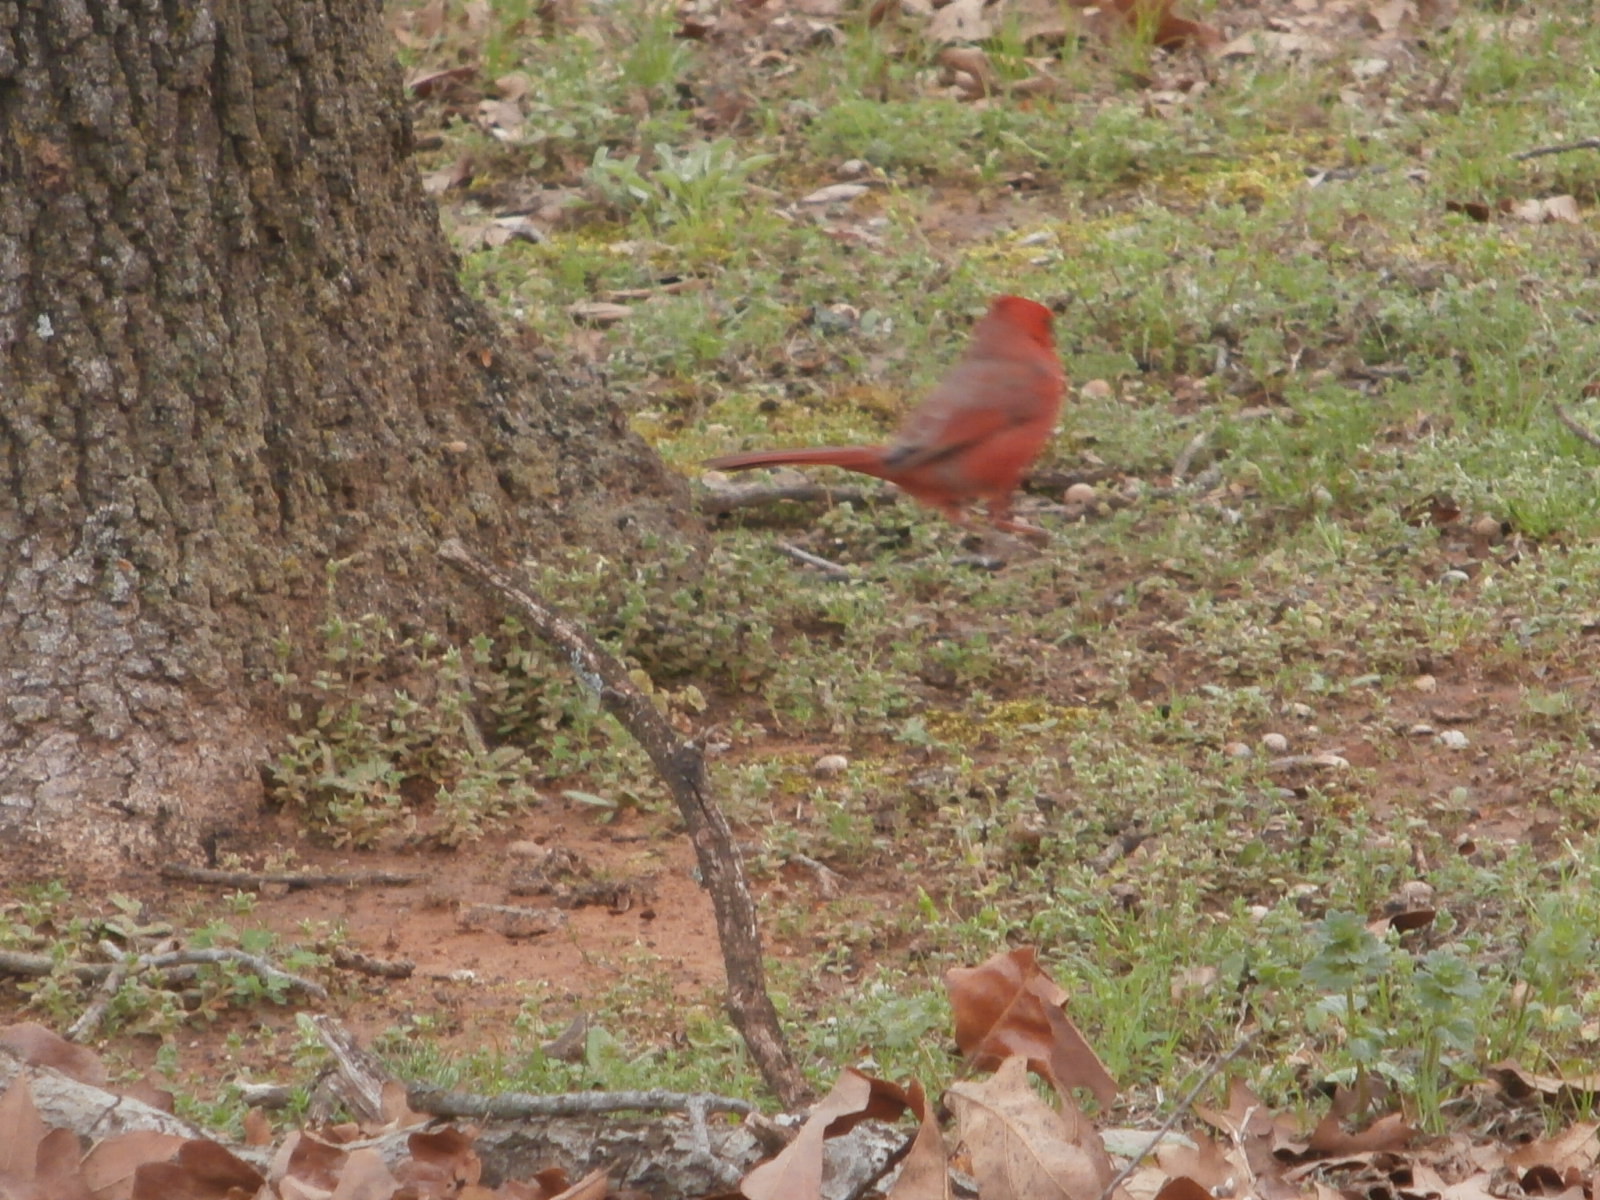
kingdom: Animalia
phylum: Chordata
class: Aves
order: Passeriformes
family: Cardinalidae
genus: Cardinalis
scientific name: Cardinalis cardinalis
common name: Northern cardinal
